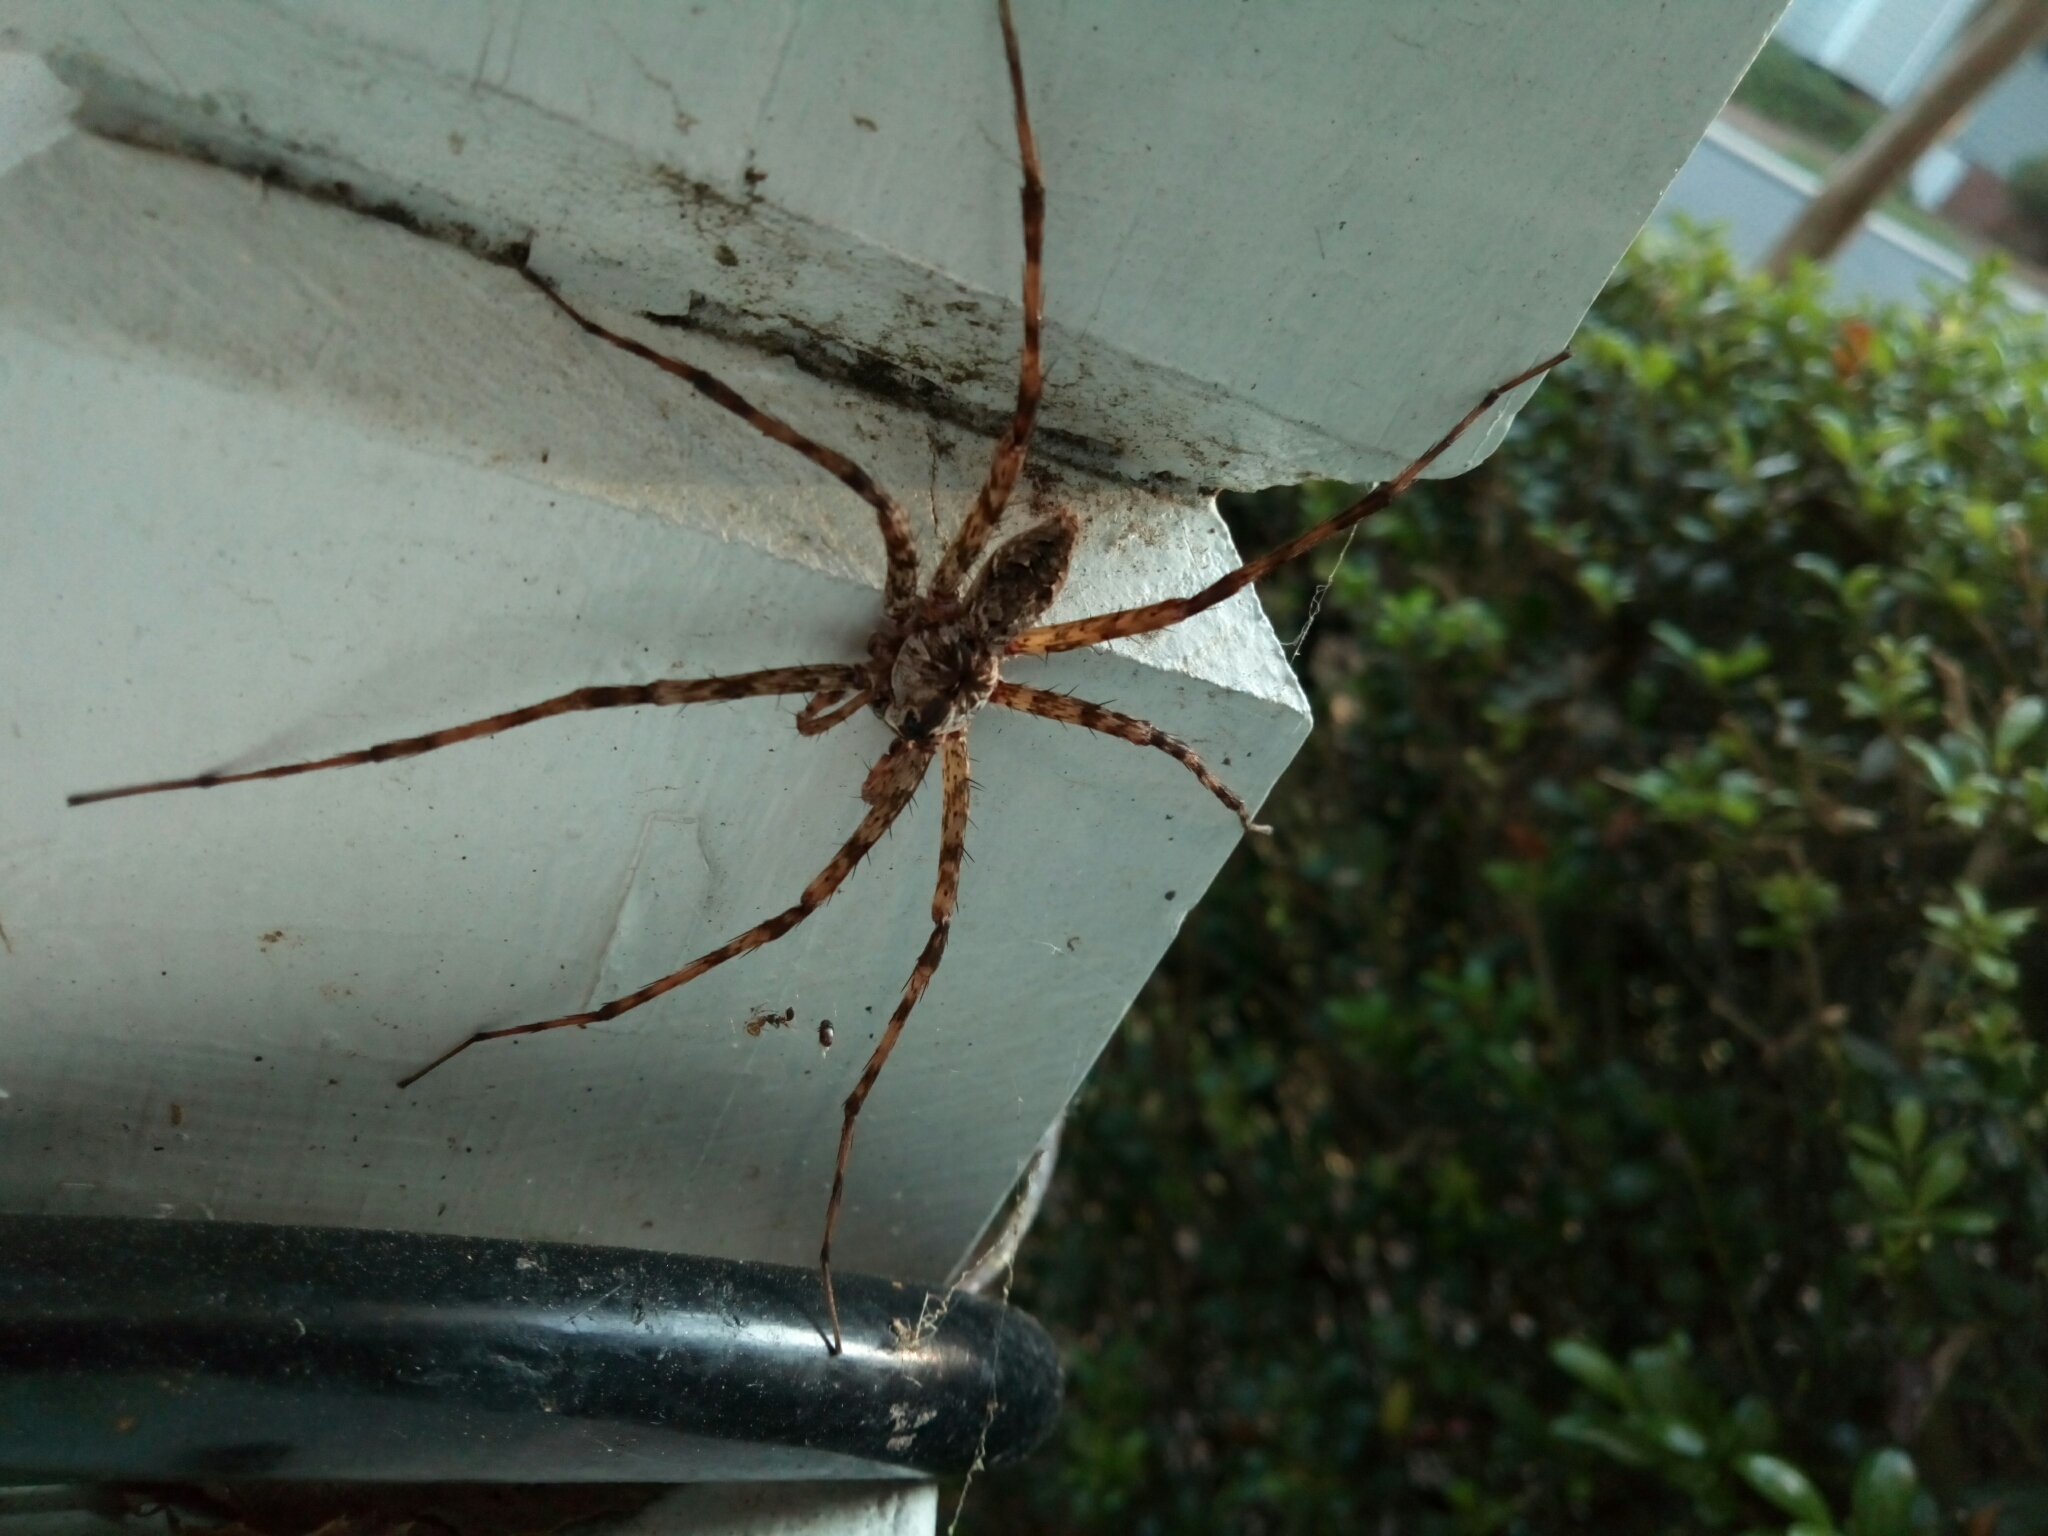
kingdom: Animalia
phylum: Arthropoda
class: Arachnida
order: Araneae
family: Pisauridae
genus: Dolomedes
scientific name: Dolomedes albineus
